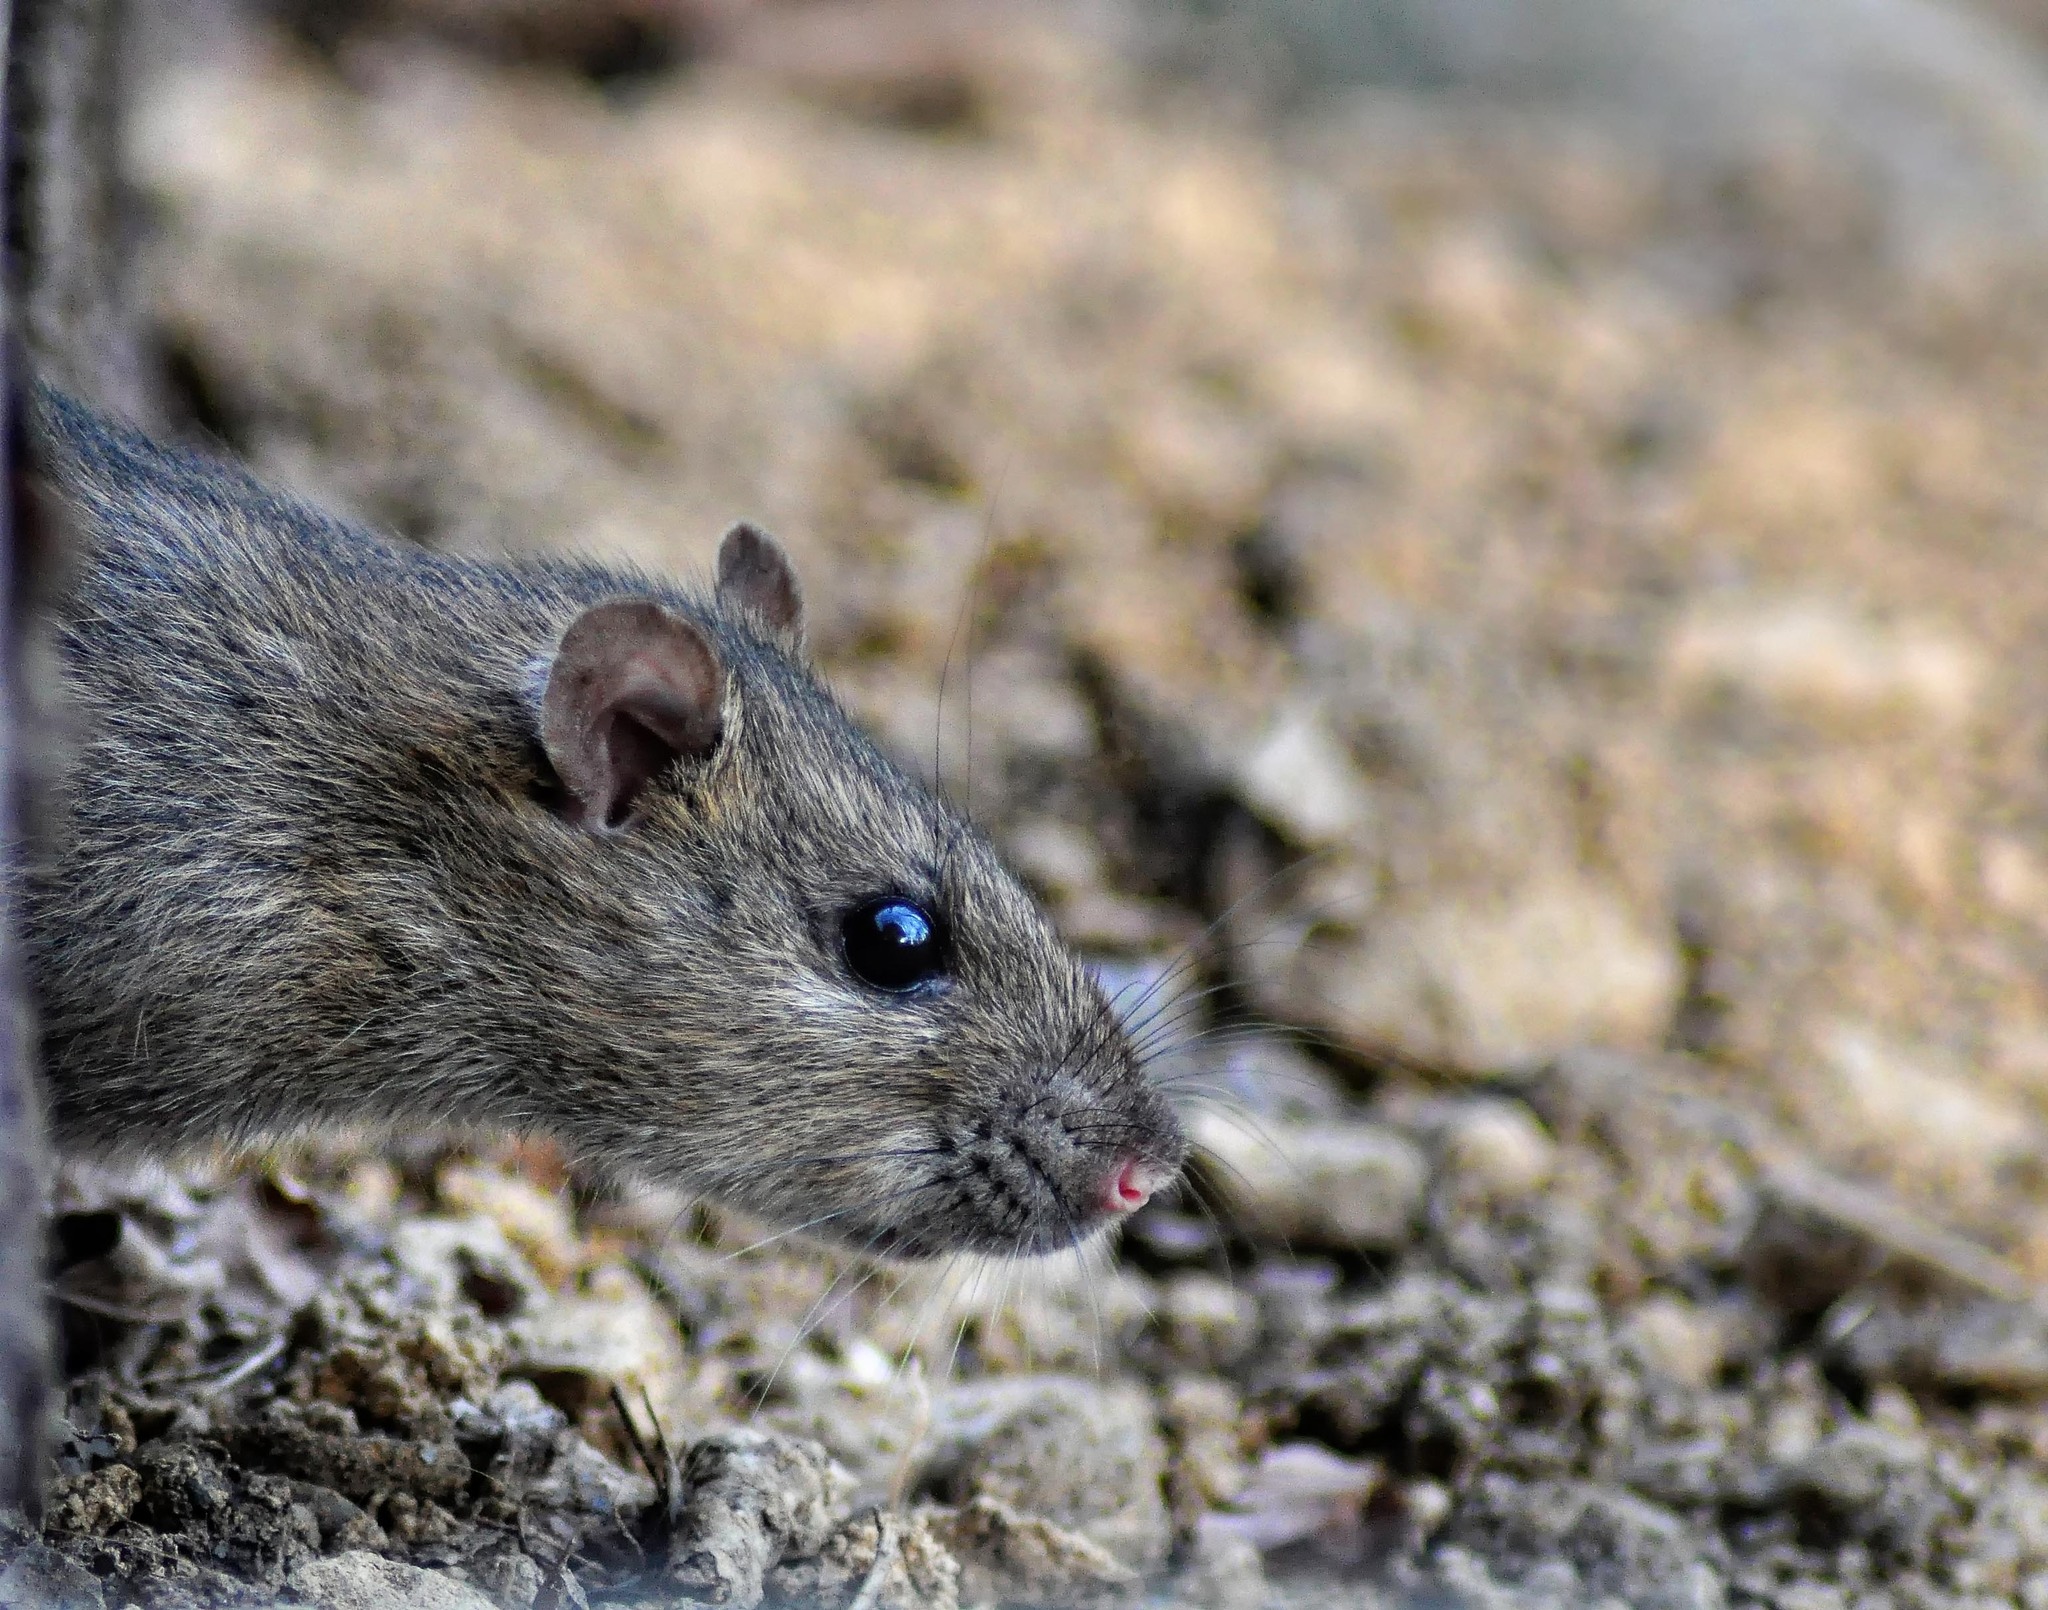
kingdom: Animalia
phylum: Chordata
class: Mammalia
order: Rodentia
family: Muridae
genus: Rattus
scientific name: Rattus norvegicus
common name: Brown rat
